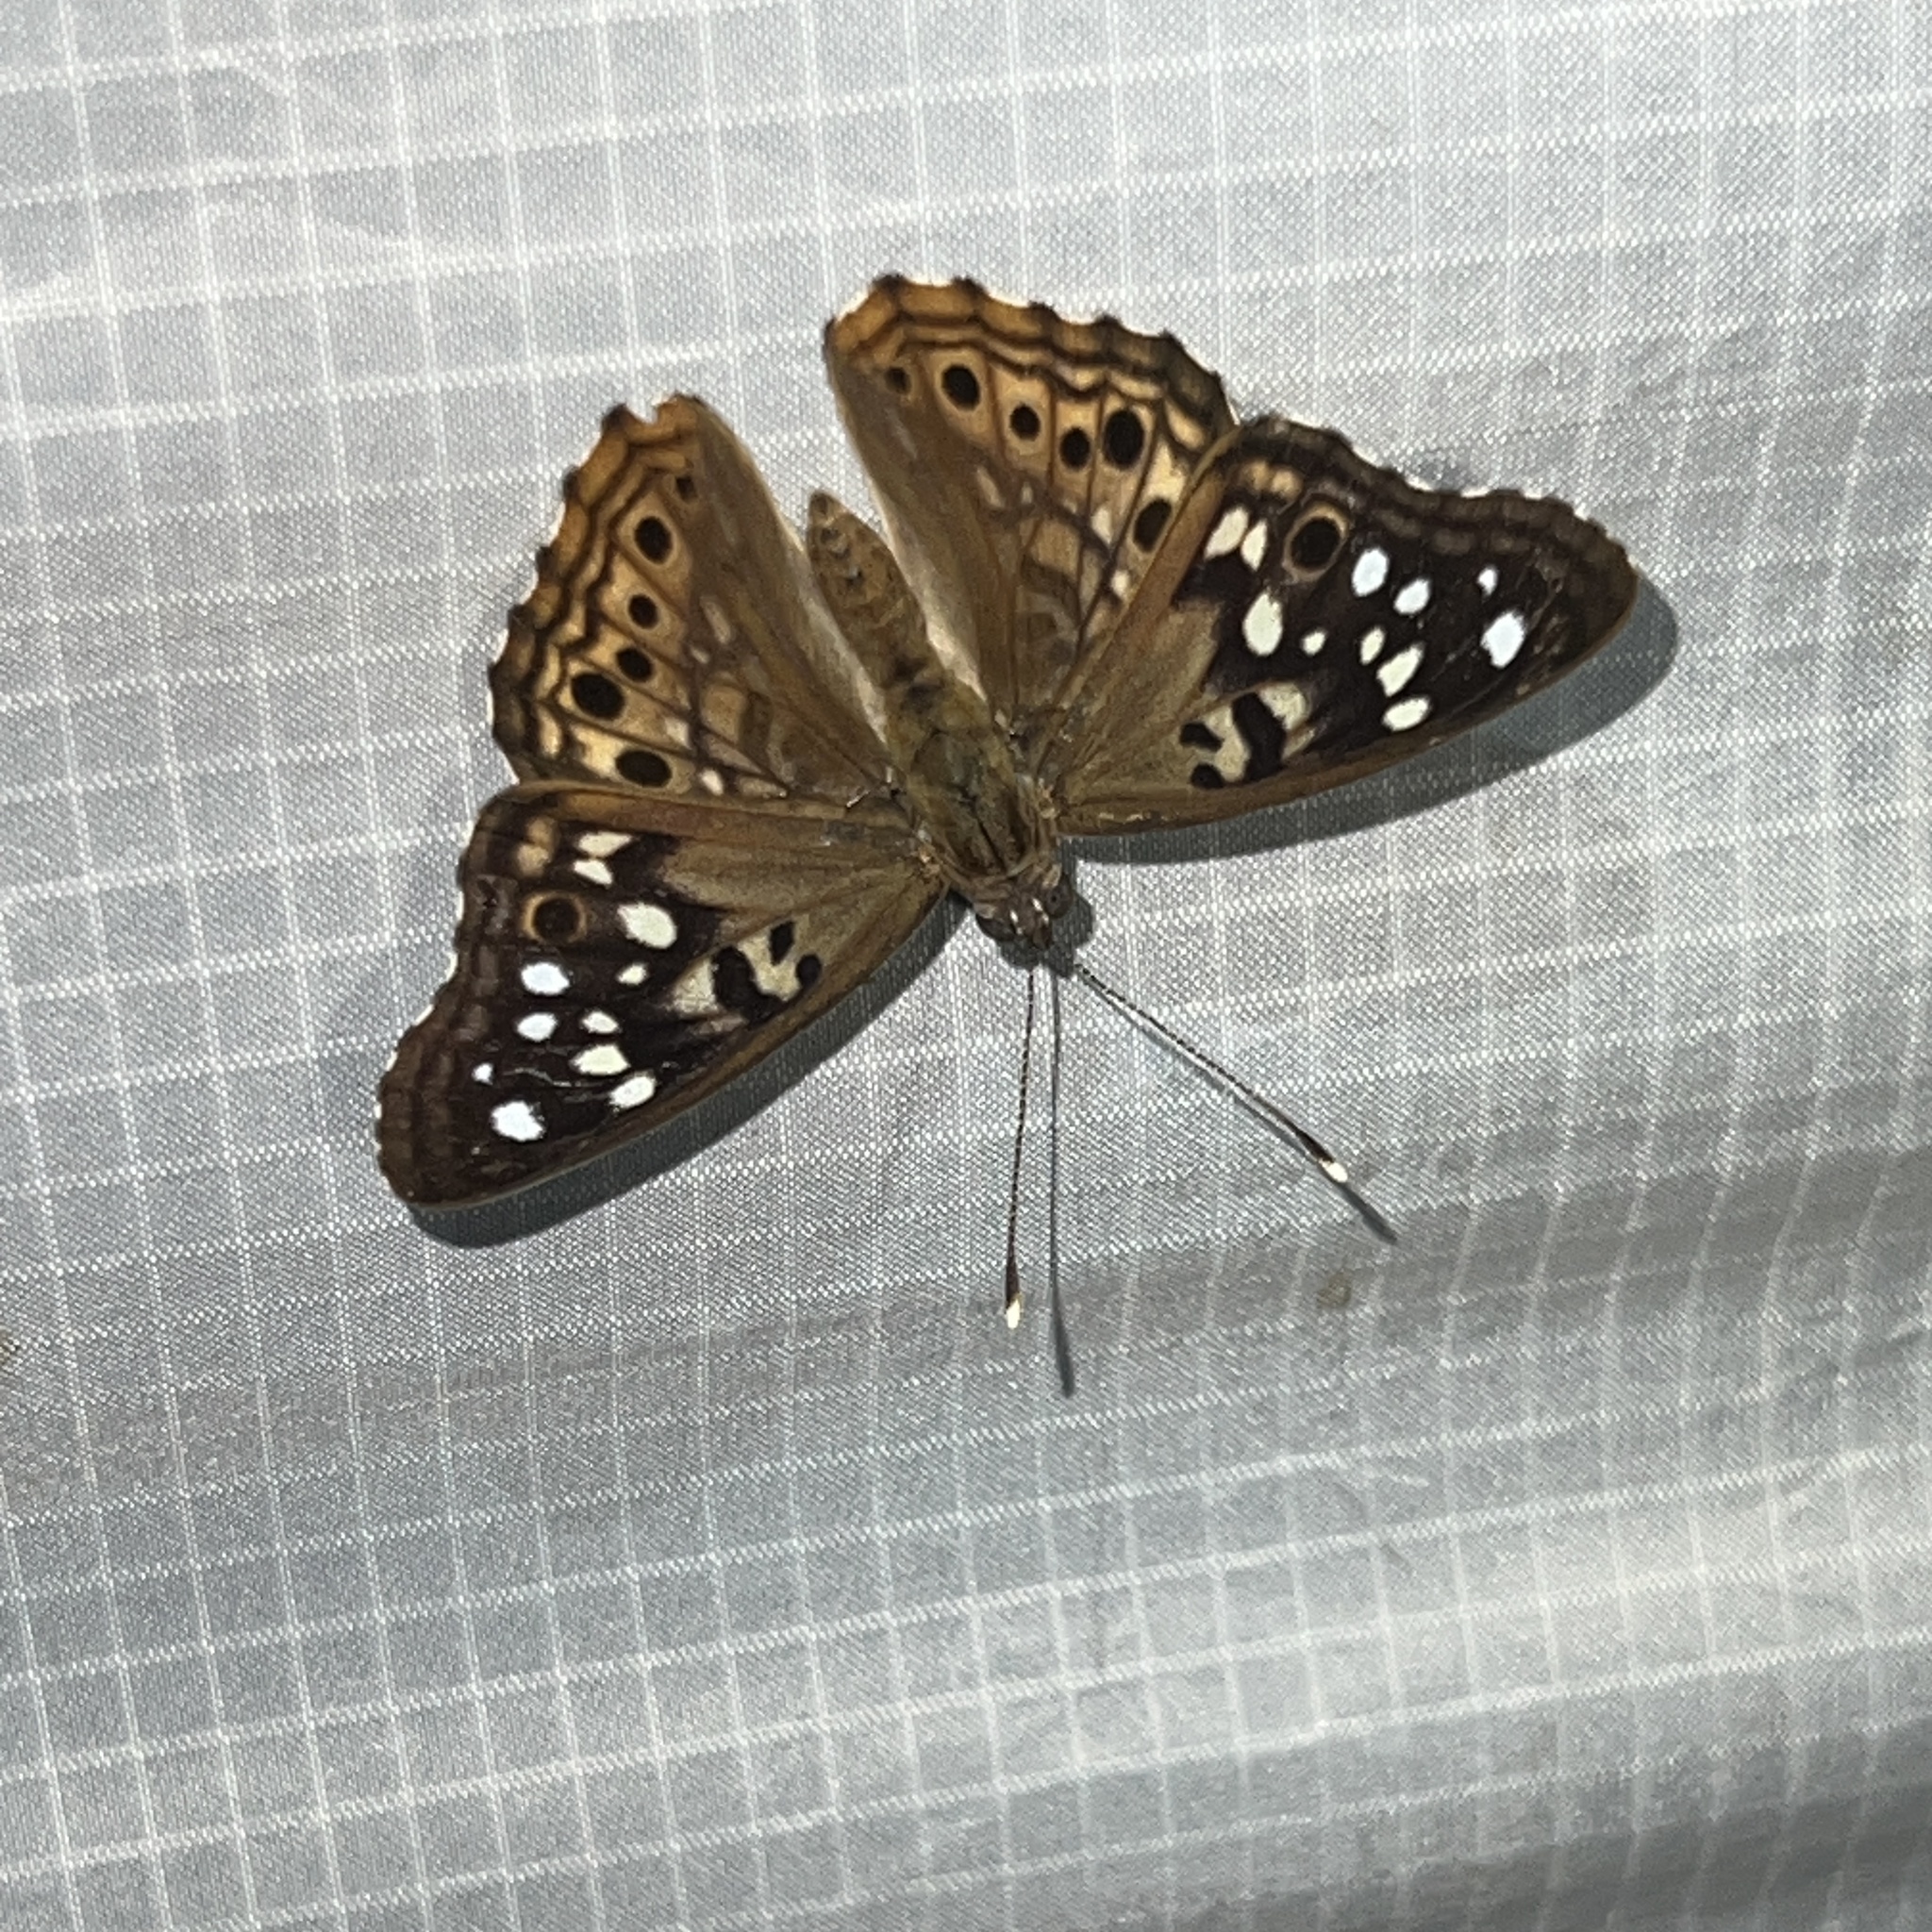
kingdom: Animalia
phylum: Arthropoda
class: Insecta
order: Lepidoptera
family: Nymphalidae
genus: Asterocampa
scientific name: Asterocampa celtis
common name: Hackberry emperor
